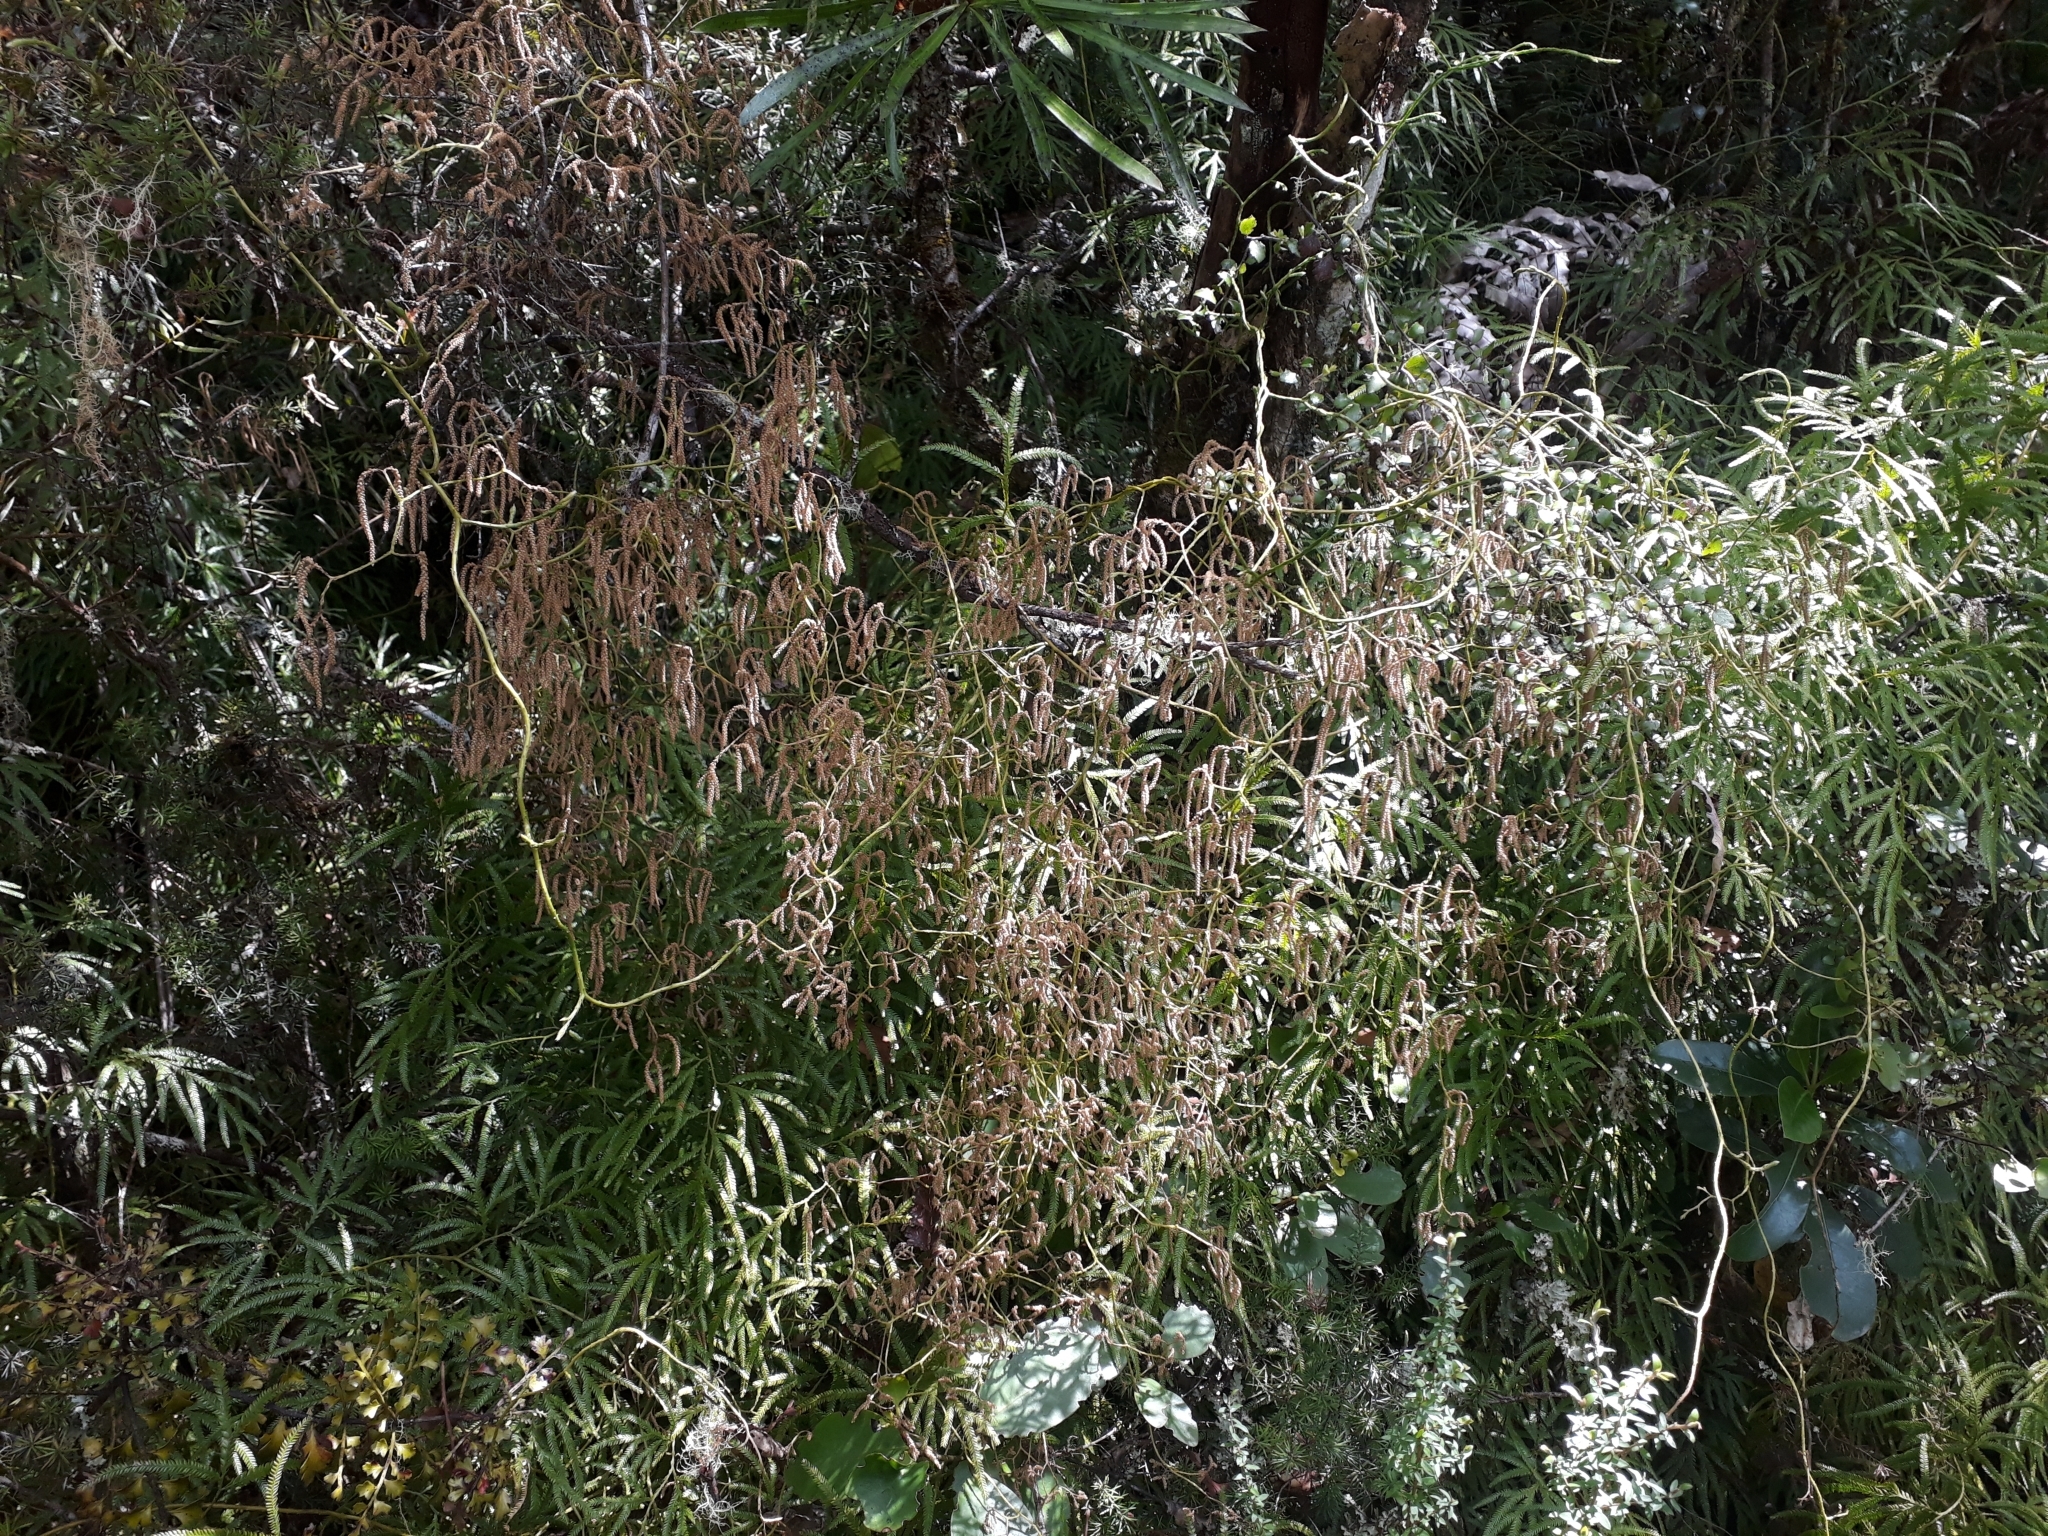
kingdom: Plantae
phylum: Tracheophyta
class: Lycopodiopsida
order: Lycopodiales
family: Lycopodiaceae
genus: Lycopodium
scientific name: Lycopodium volubile
